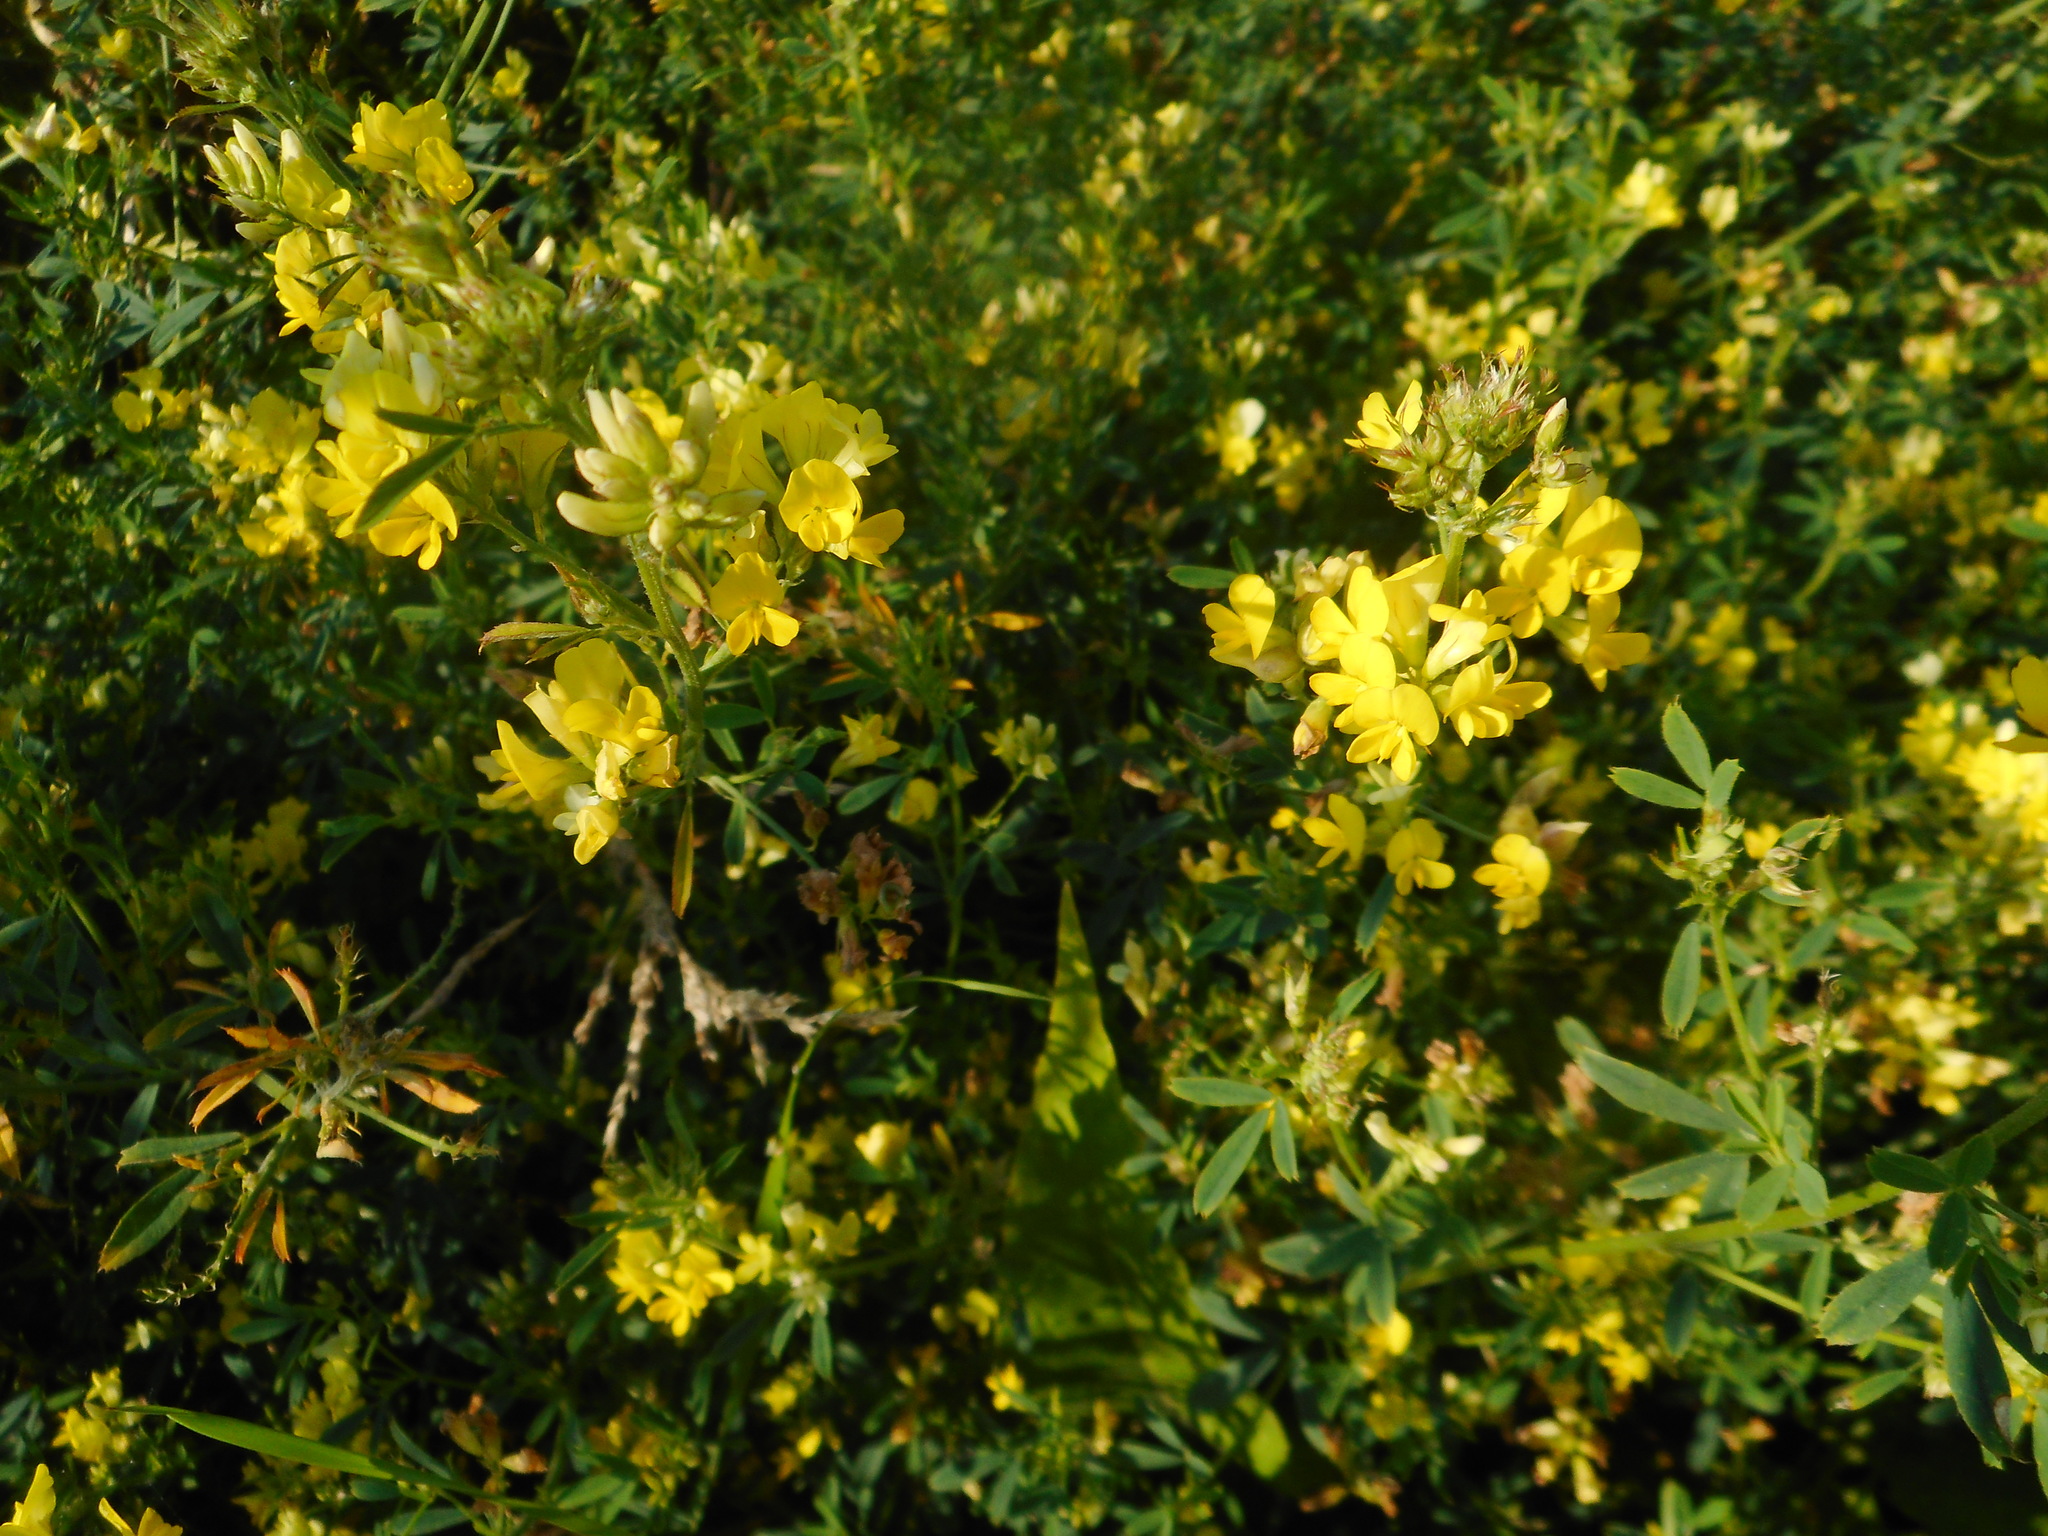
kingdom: Plantae
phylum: Tracheophyta
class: Magnoliopsida
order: Fabales
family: Fabaceae
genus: Medicago
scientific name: Medicago varia
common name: Sand lucerne
